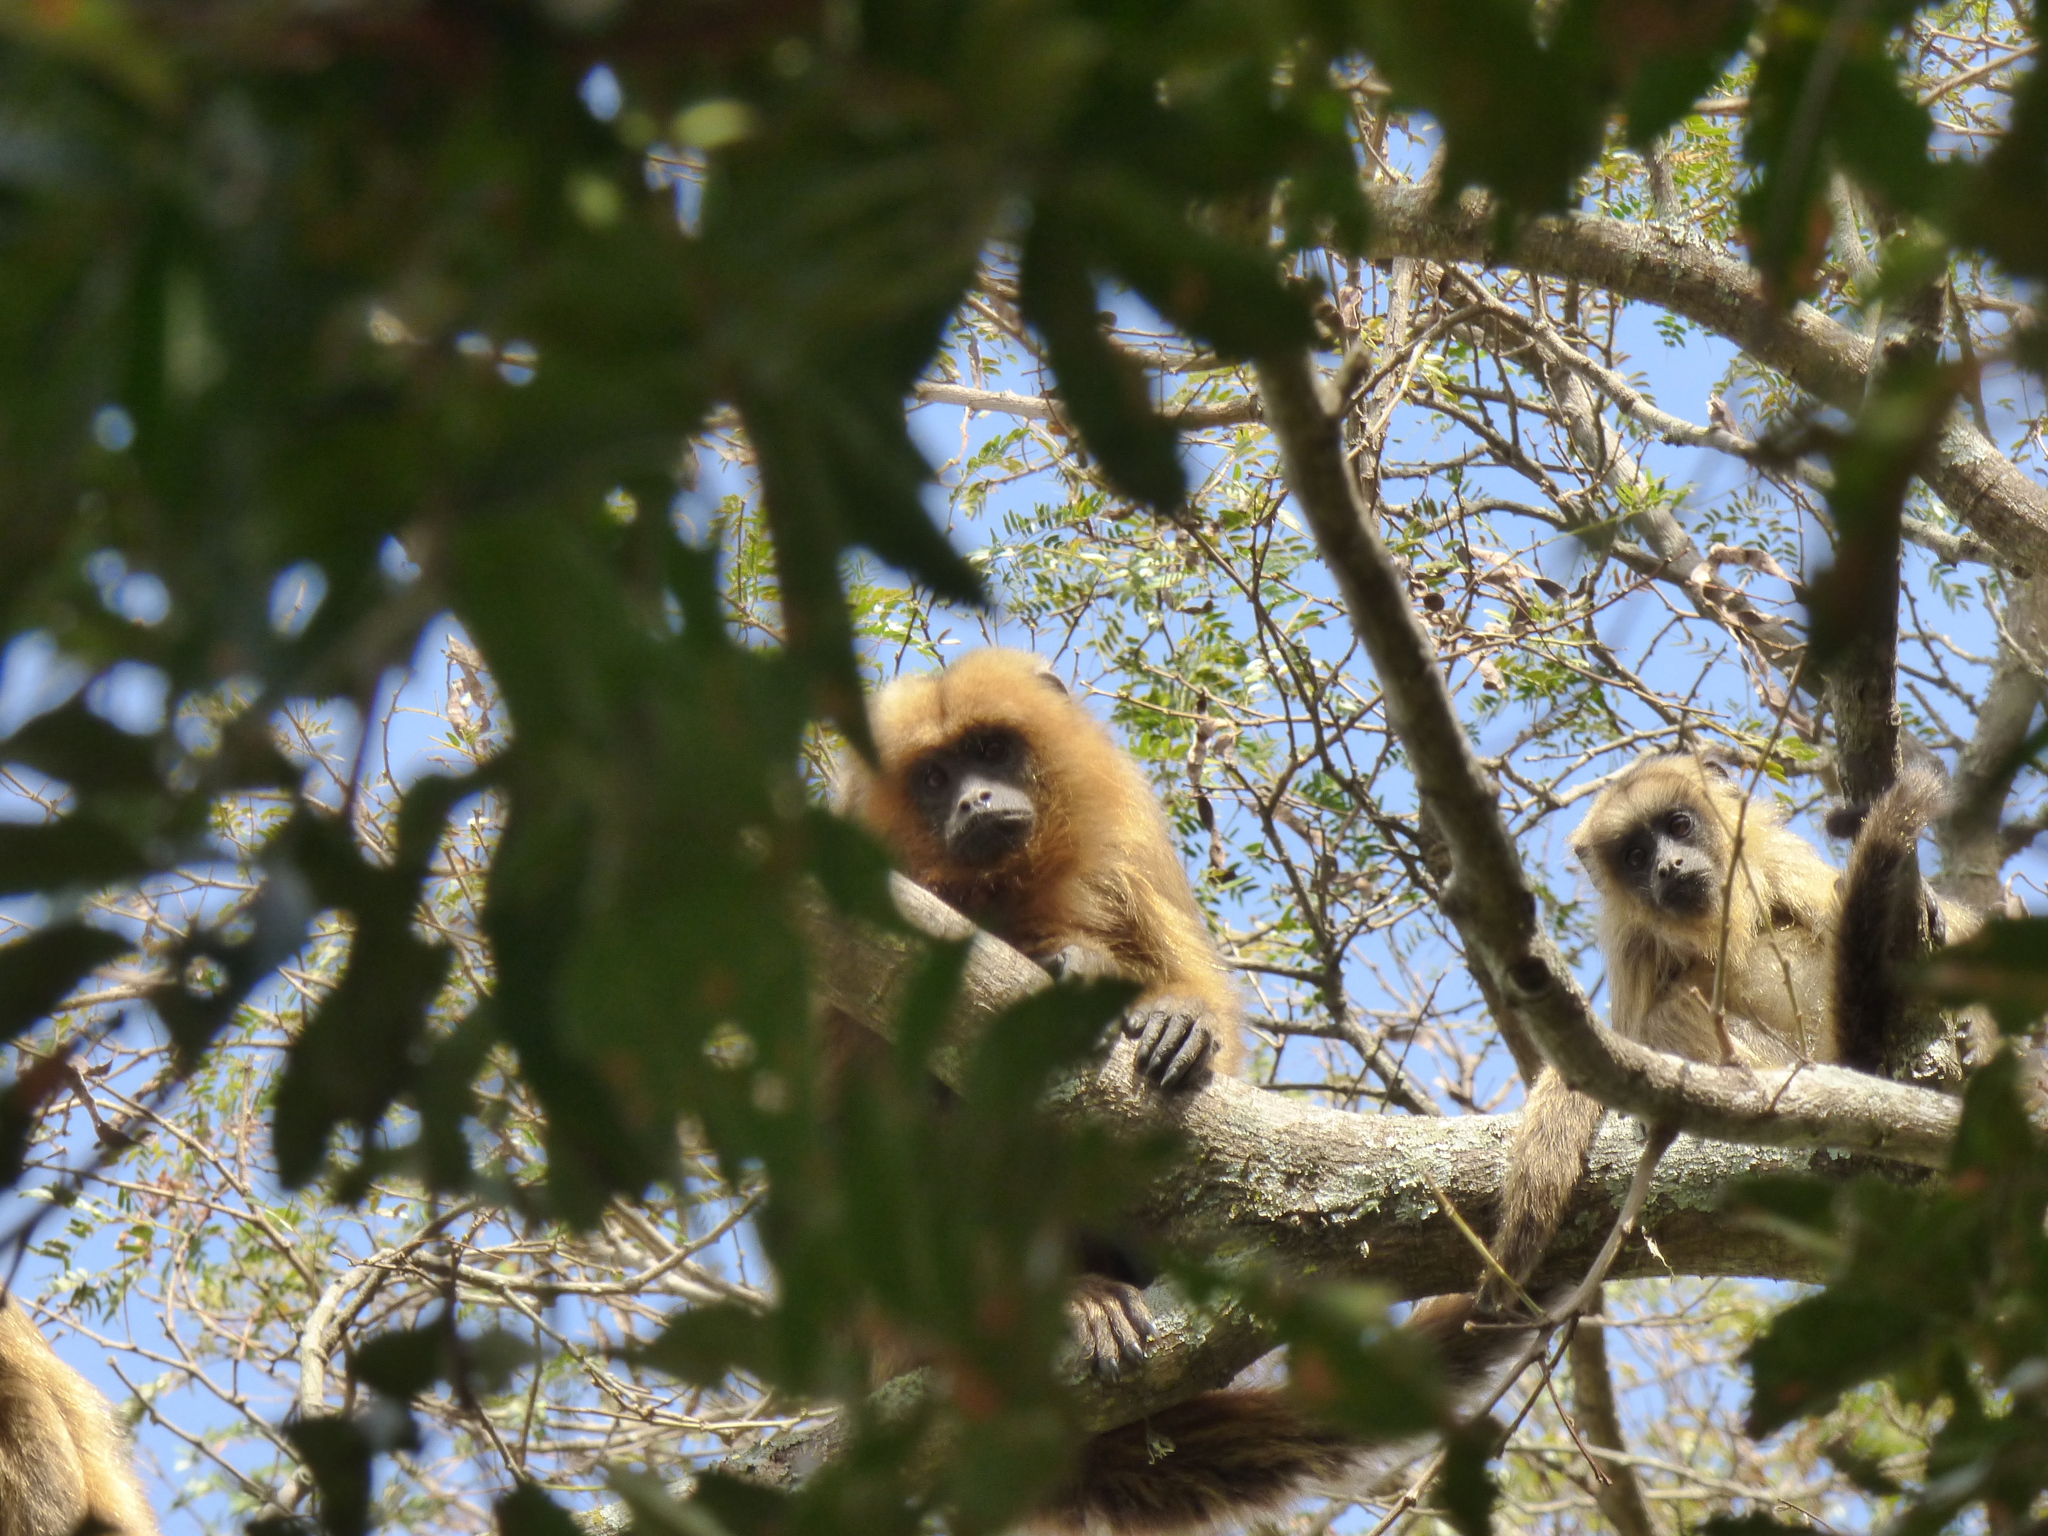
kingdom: Animalia
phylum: Chordata
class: Mammalia
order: Primates
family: Atelidae
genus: Alouatta
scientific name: Alouatta caraya
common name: Black howler
